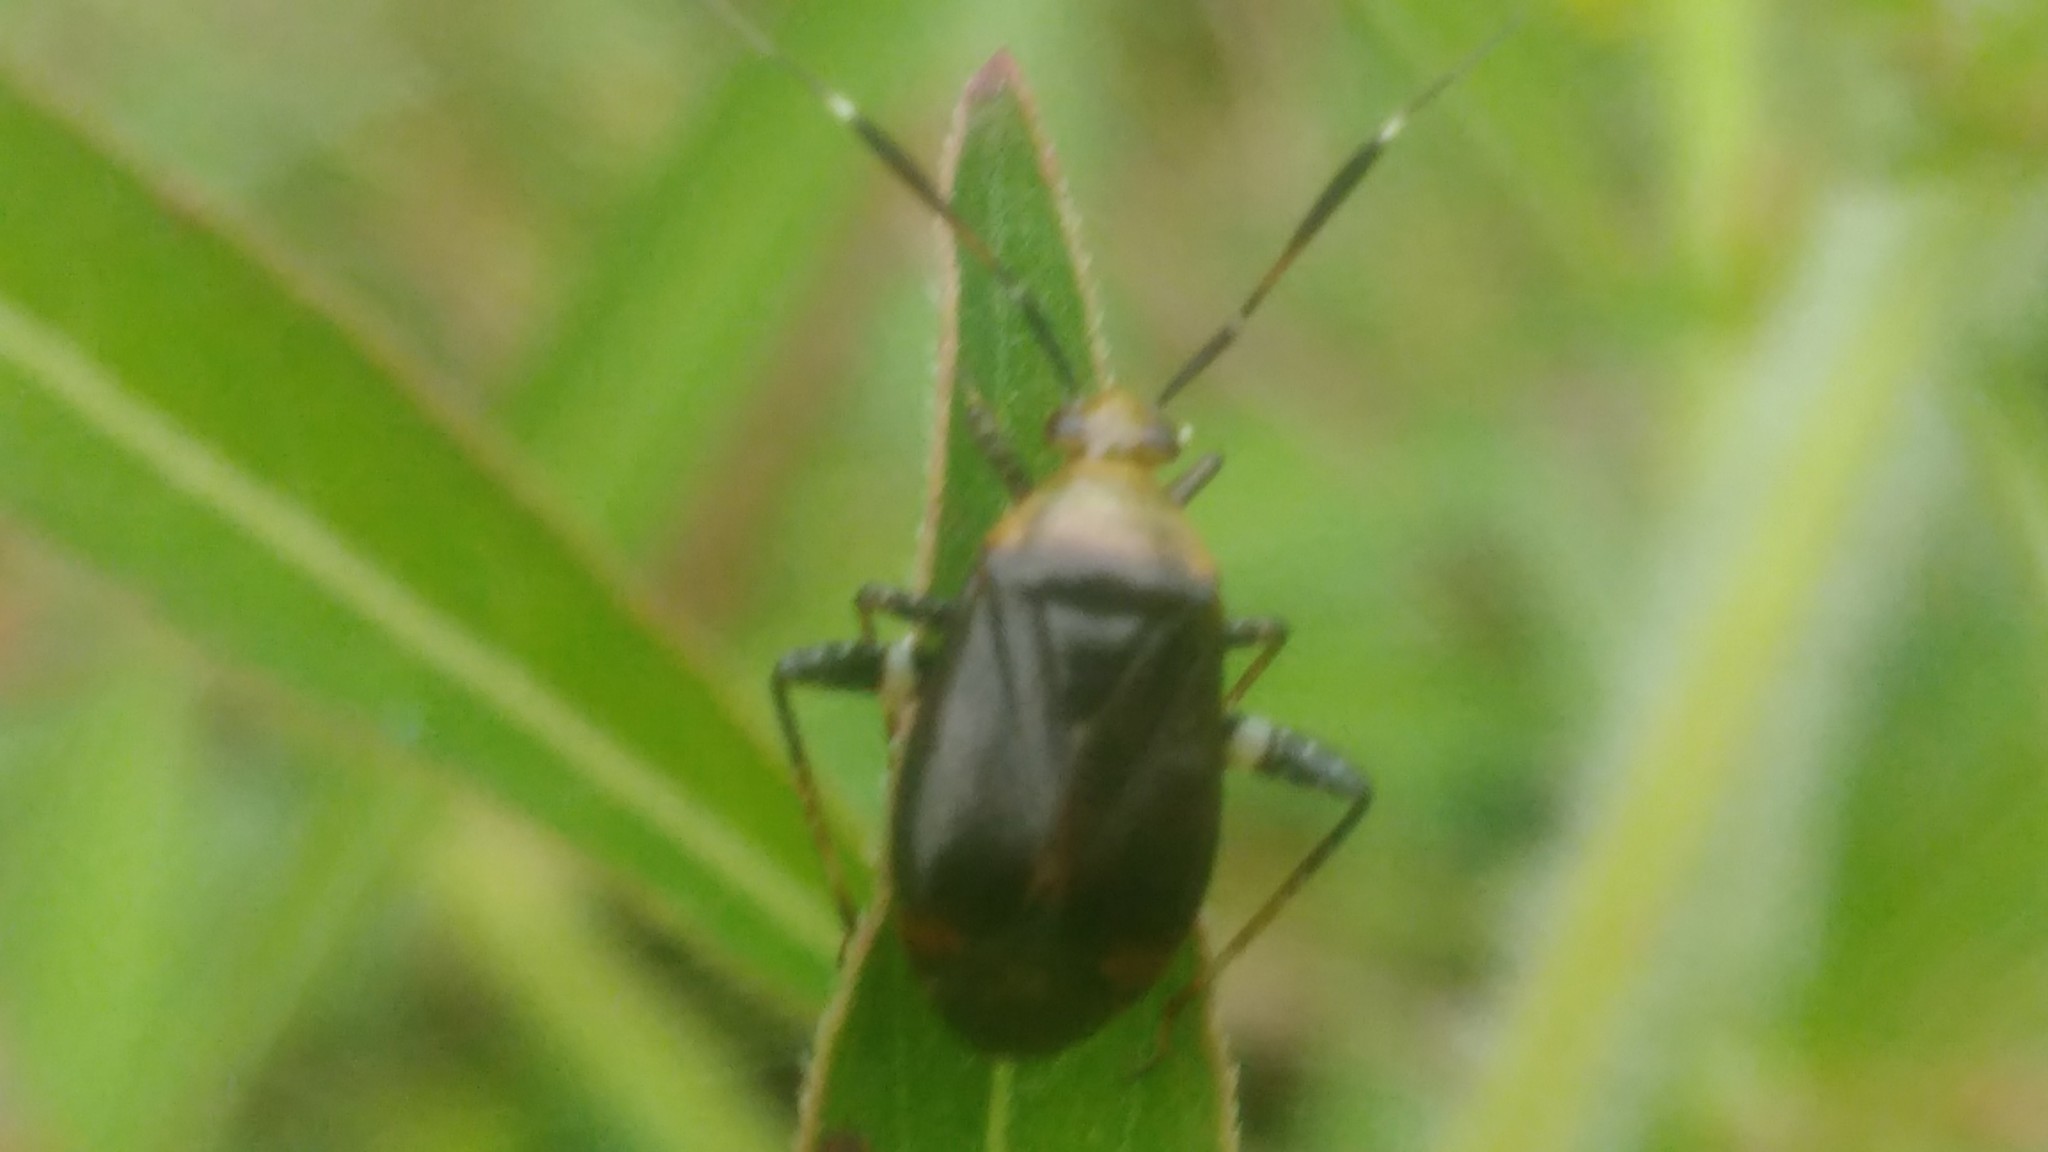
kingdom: Animalia
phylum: Arthropoda
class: Insecta
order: Hemiptera
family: Miridae
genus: Horciasinus
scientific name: Horciasinus argentinus
